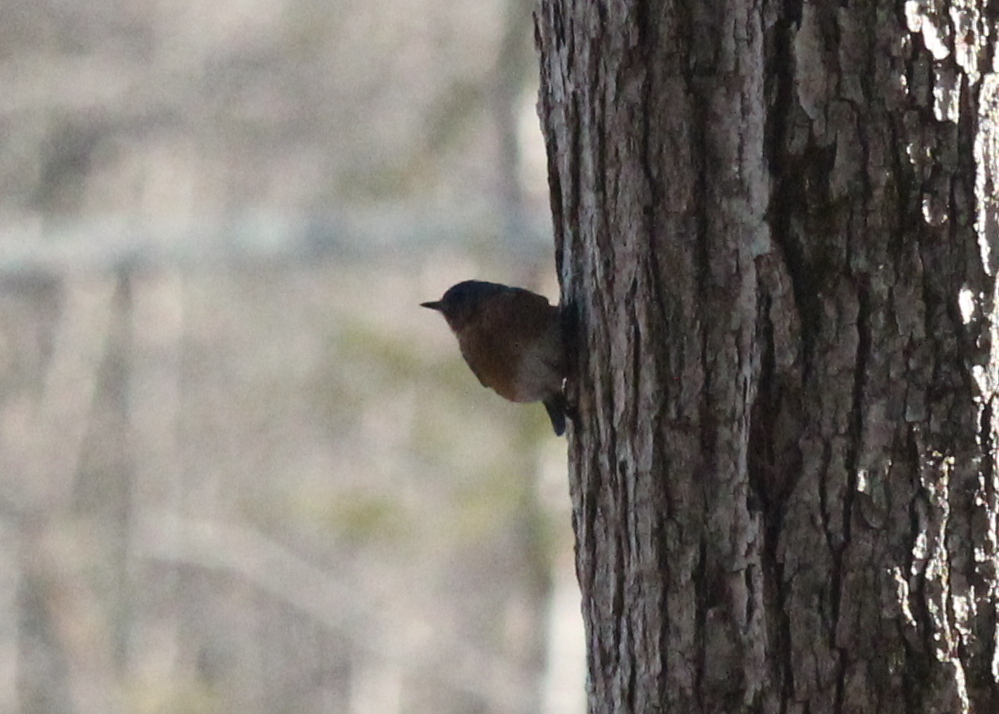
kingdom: Animalia
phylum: Chordata
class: Aves
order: Passeriformes
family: Turdidae
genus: Sialia
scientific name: Sialia sialis
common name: Eastern bluebird
